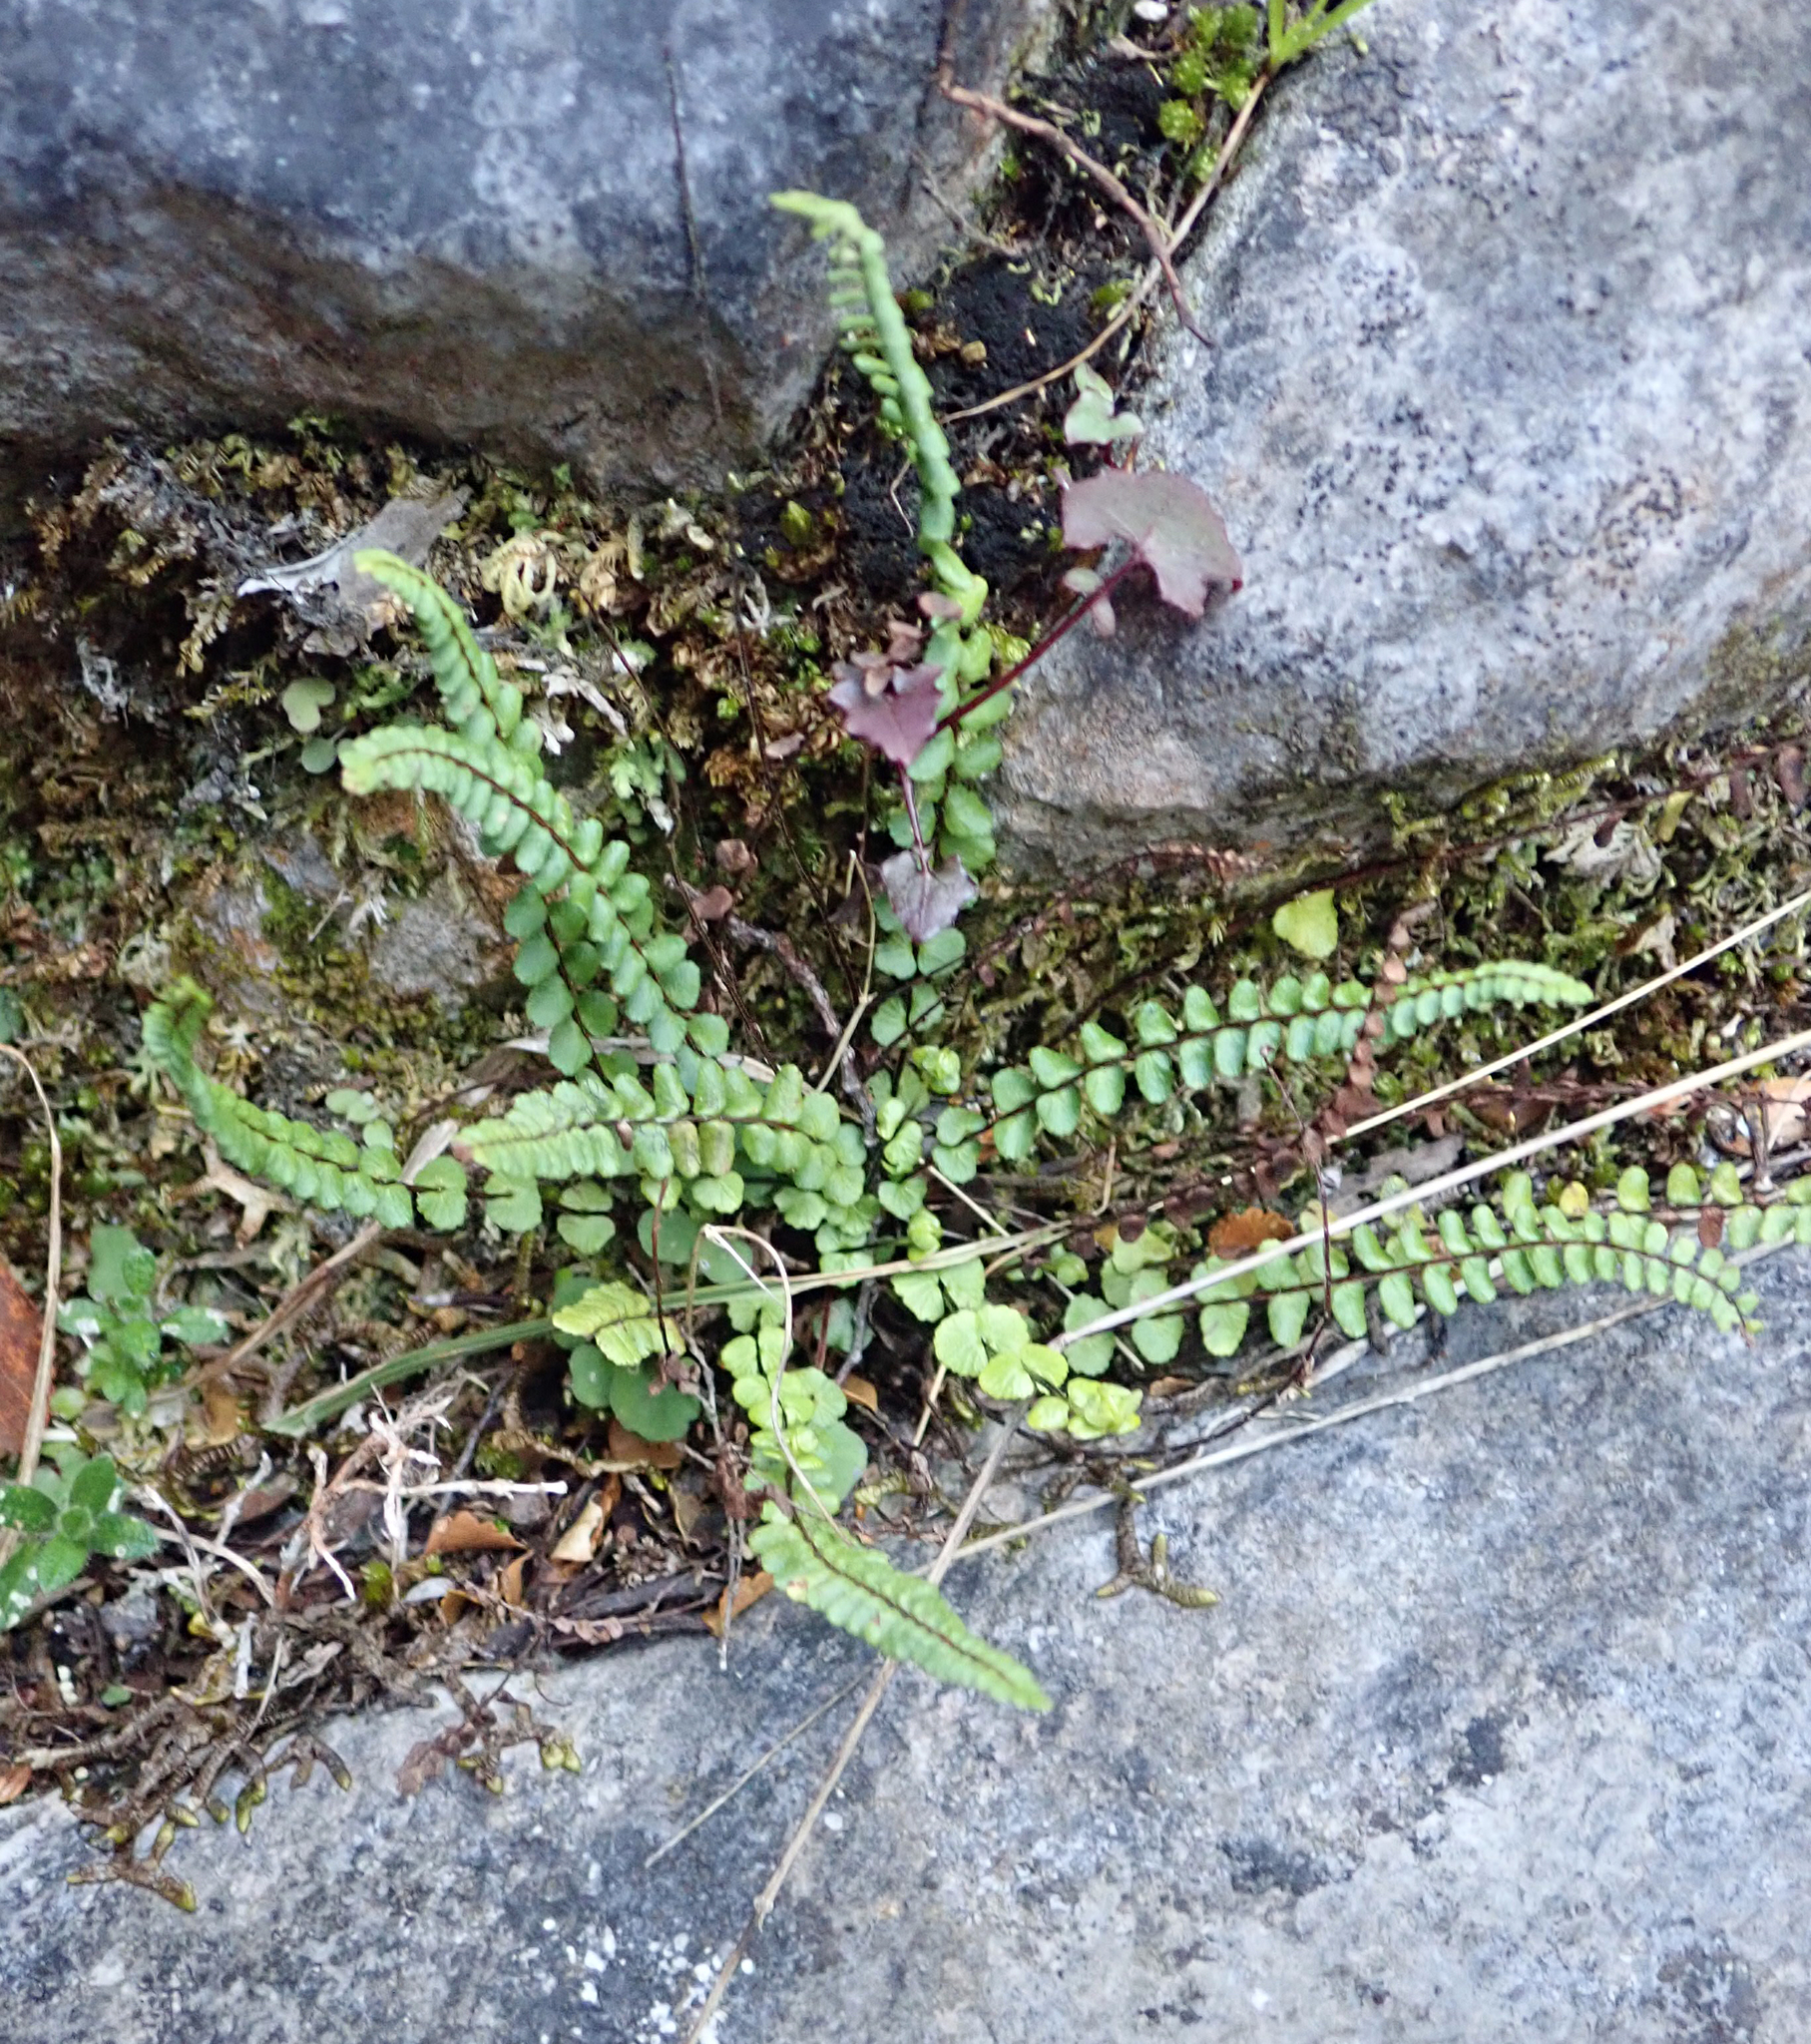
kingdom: Plantae
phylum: Tracheophyta
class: Polypodiopsida
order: Polypodiales
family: Aspleniaceae
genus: Asplenium
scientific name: Asplenium trichomanes
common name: Maidenhair spleenwort
